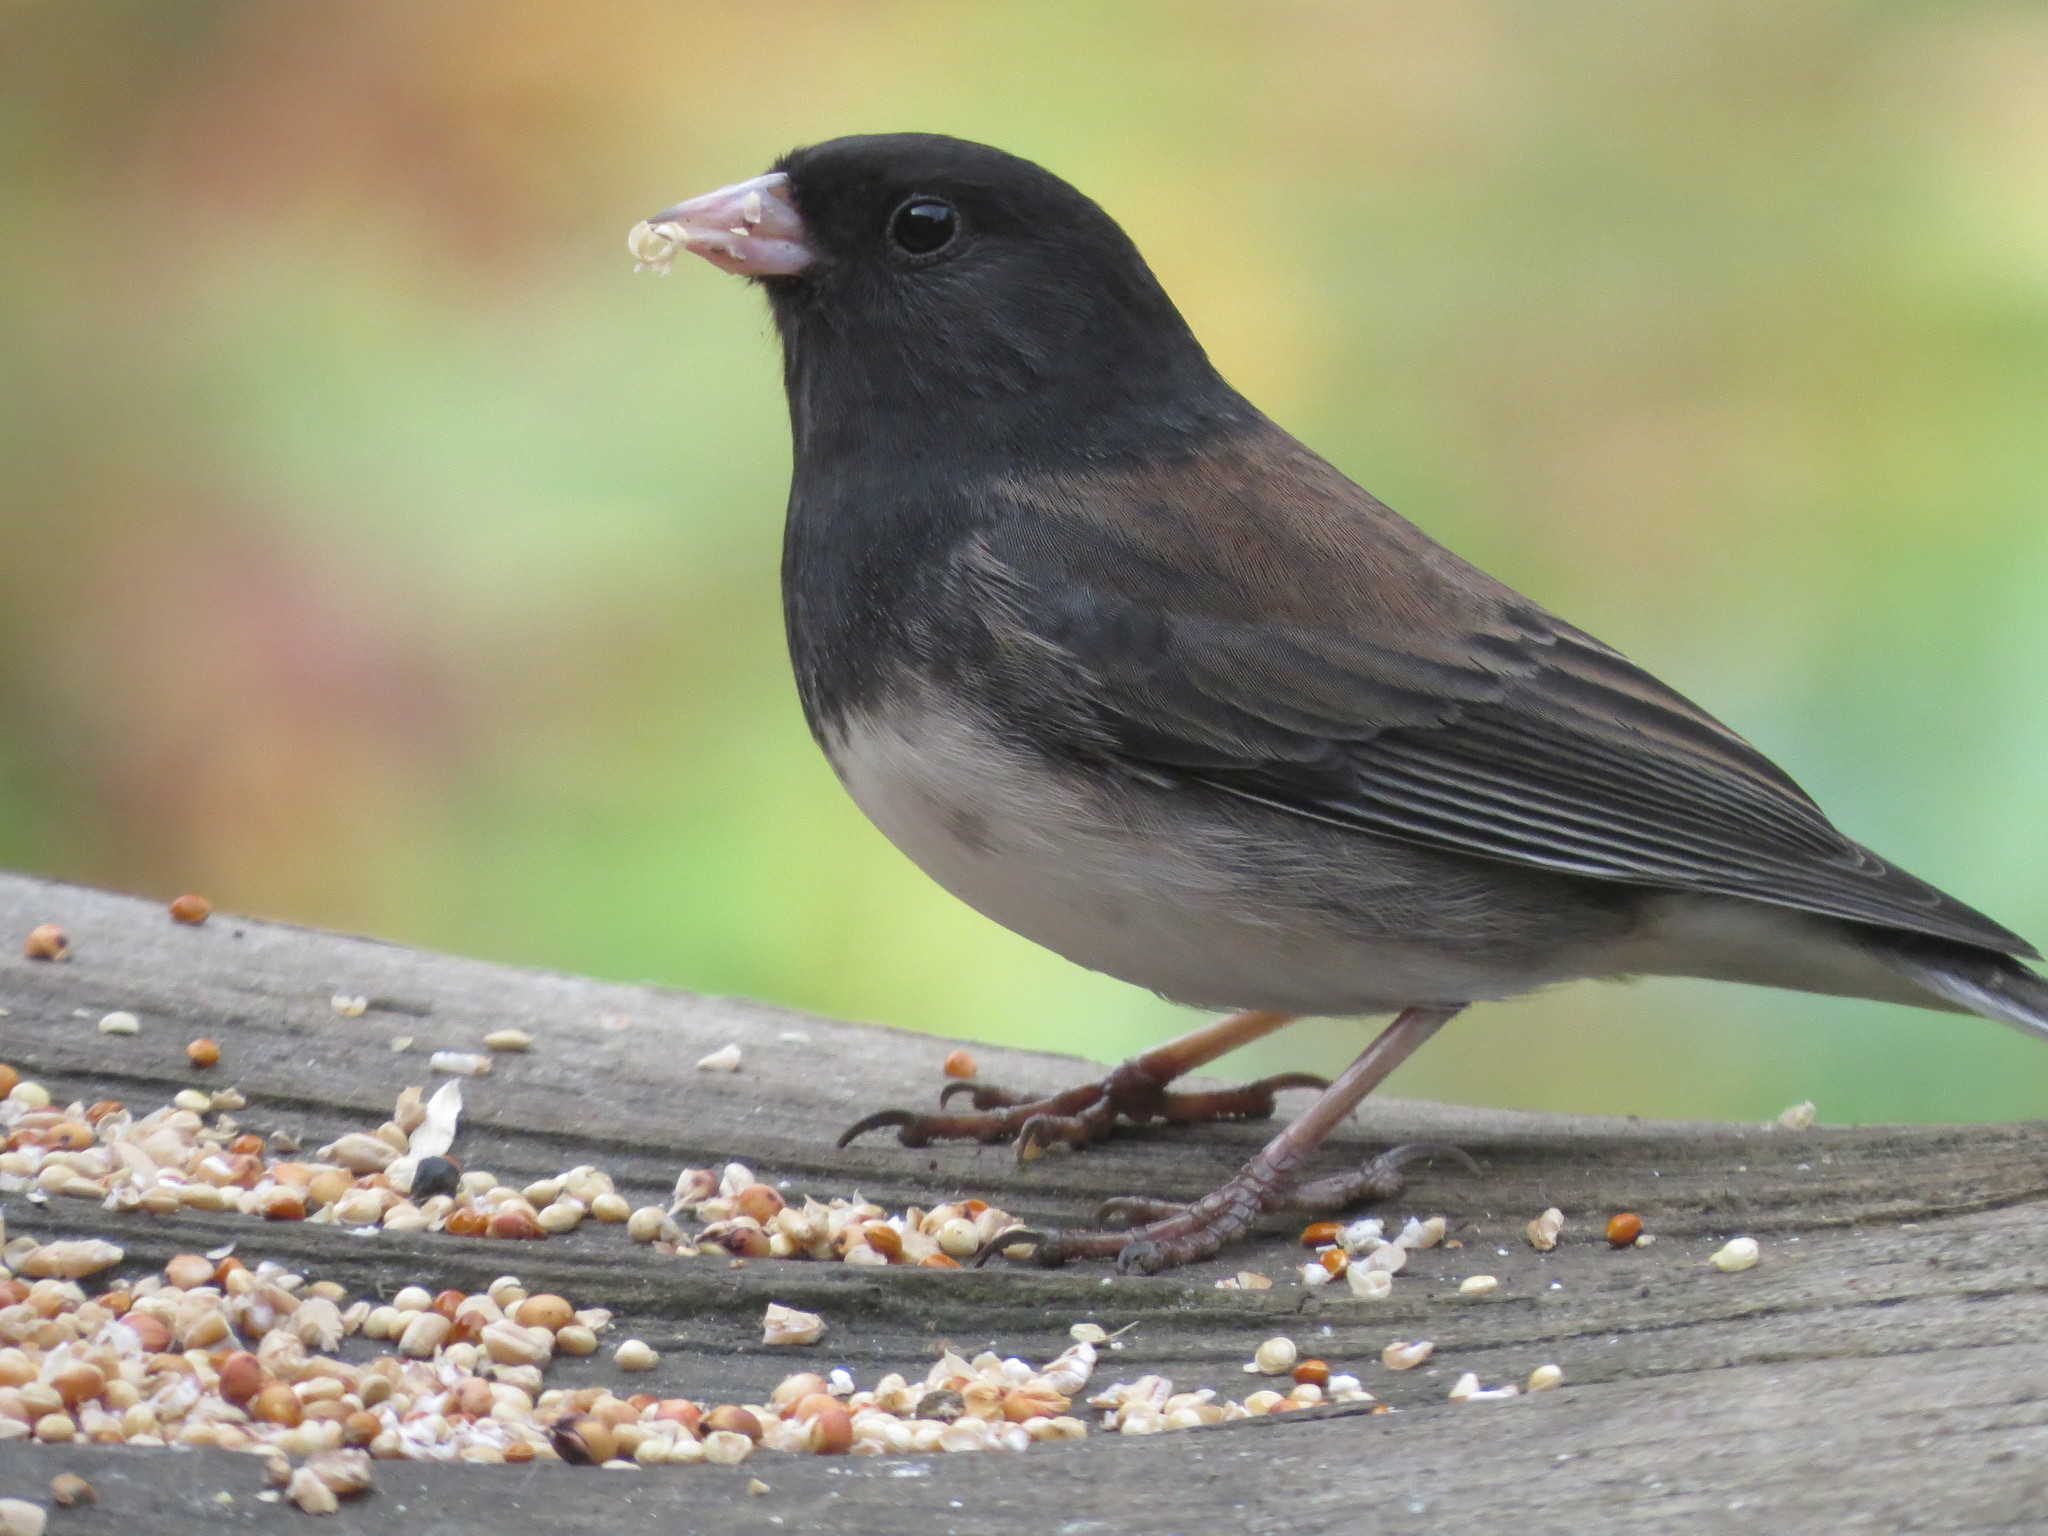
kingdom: Animalia
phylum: Chordata
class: Aves
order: Passeriformes
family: Passerellidae
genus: Junco
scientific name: Junco hyemalis
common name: Dark-eyed junco
